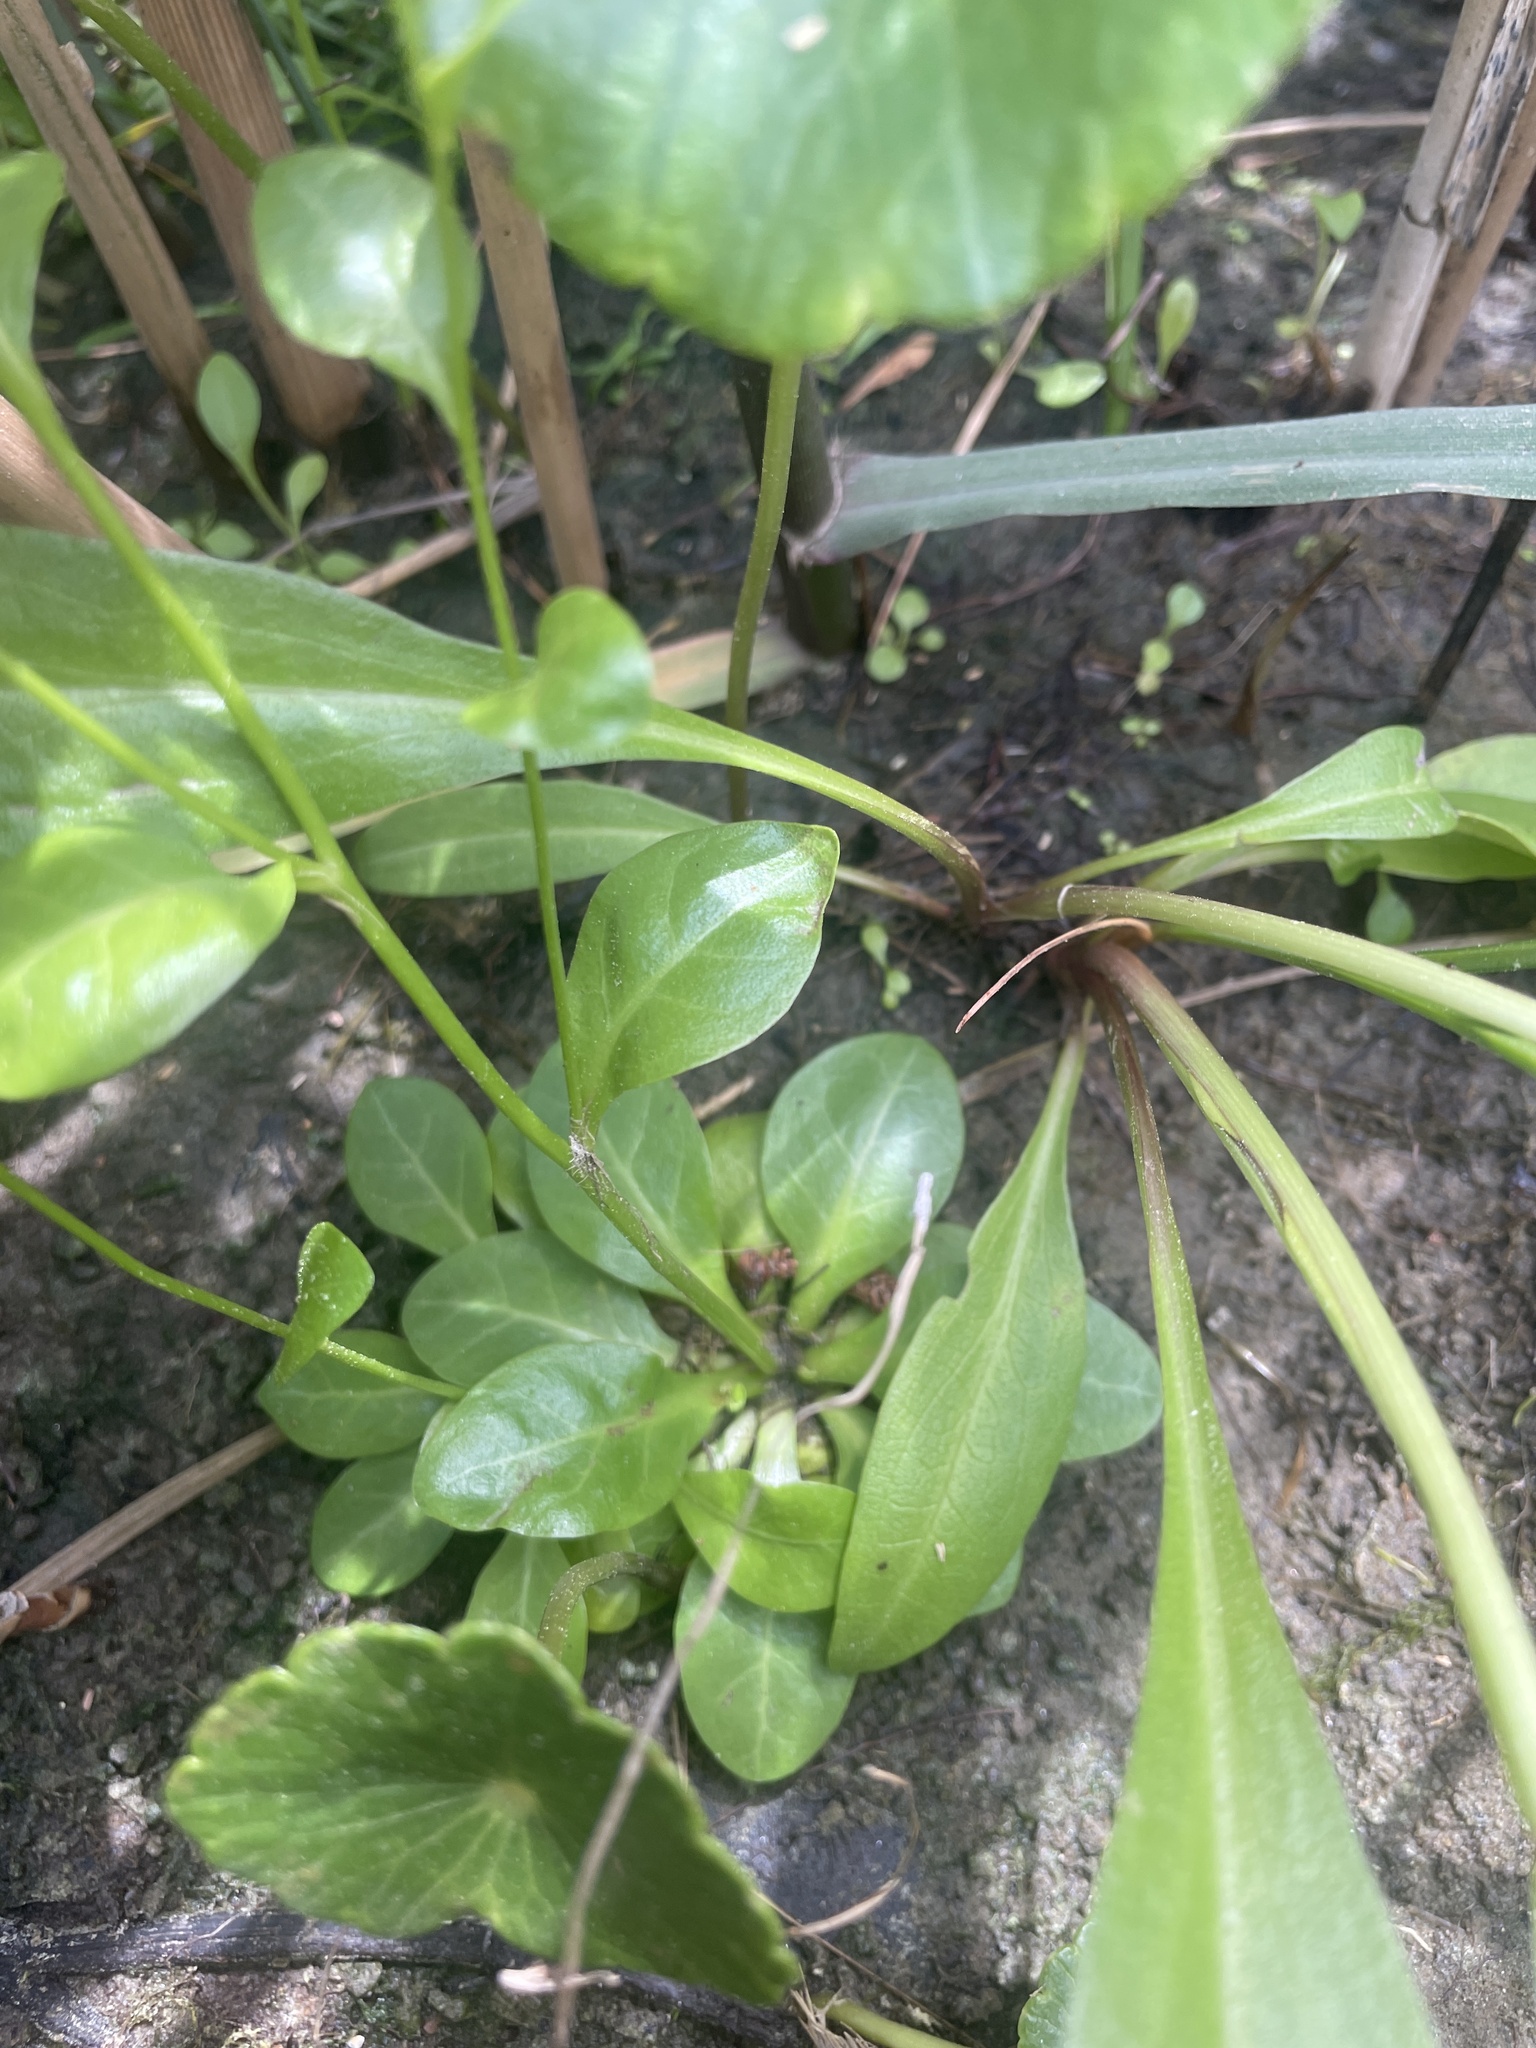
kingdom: Plantae
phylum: Tracheophyta
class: Magnoliopsida
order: Ericales
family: Primulaceae
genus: Samolus
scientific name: Samolus parviflorus
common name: False water pimpernel
